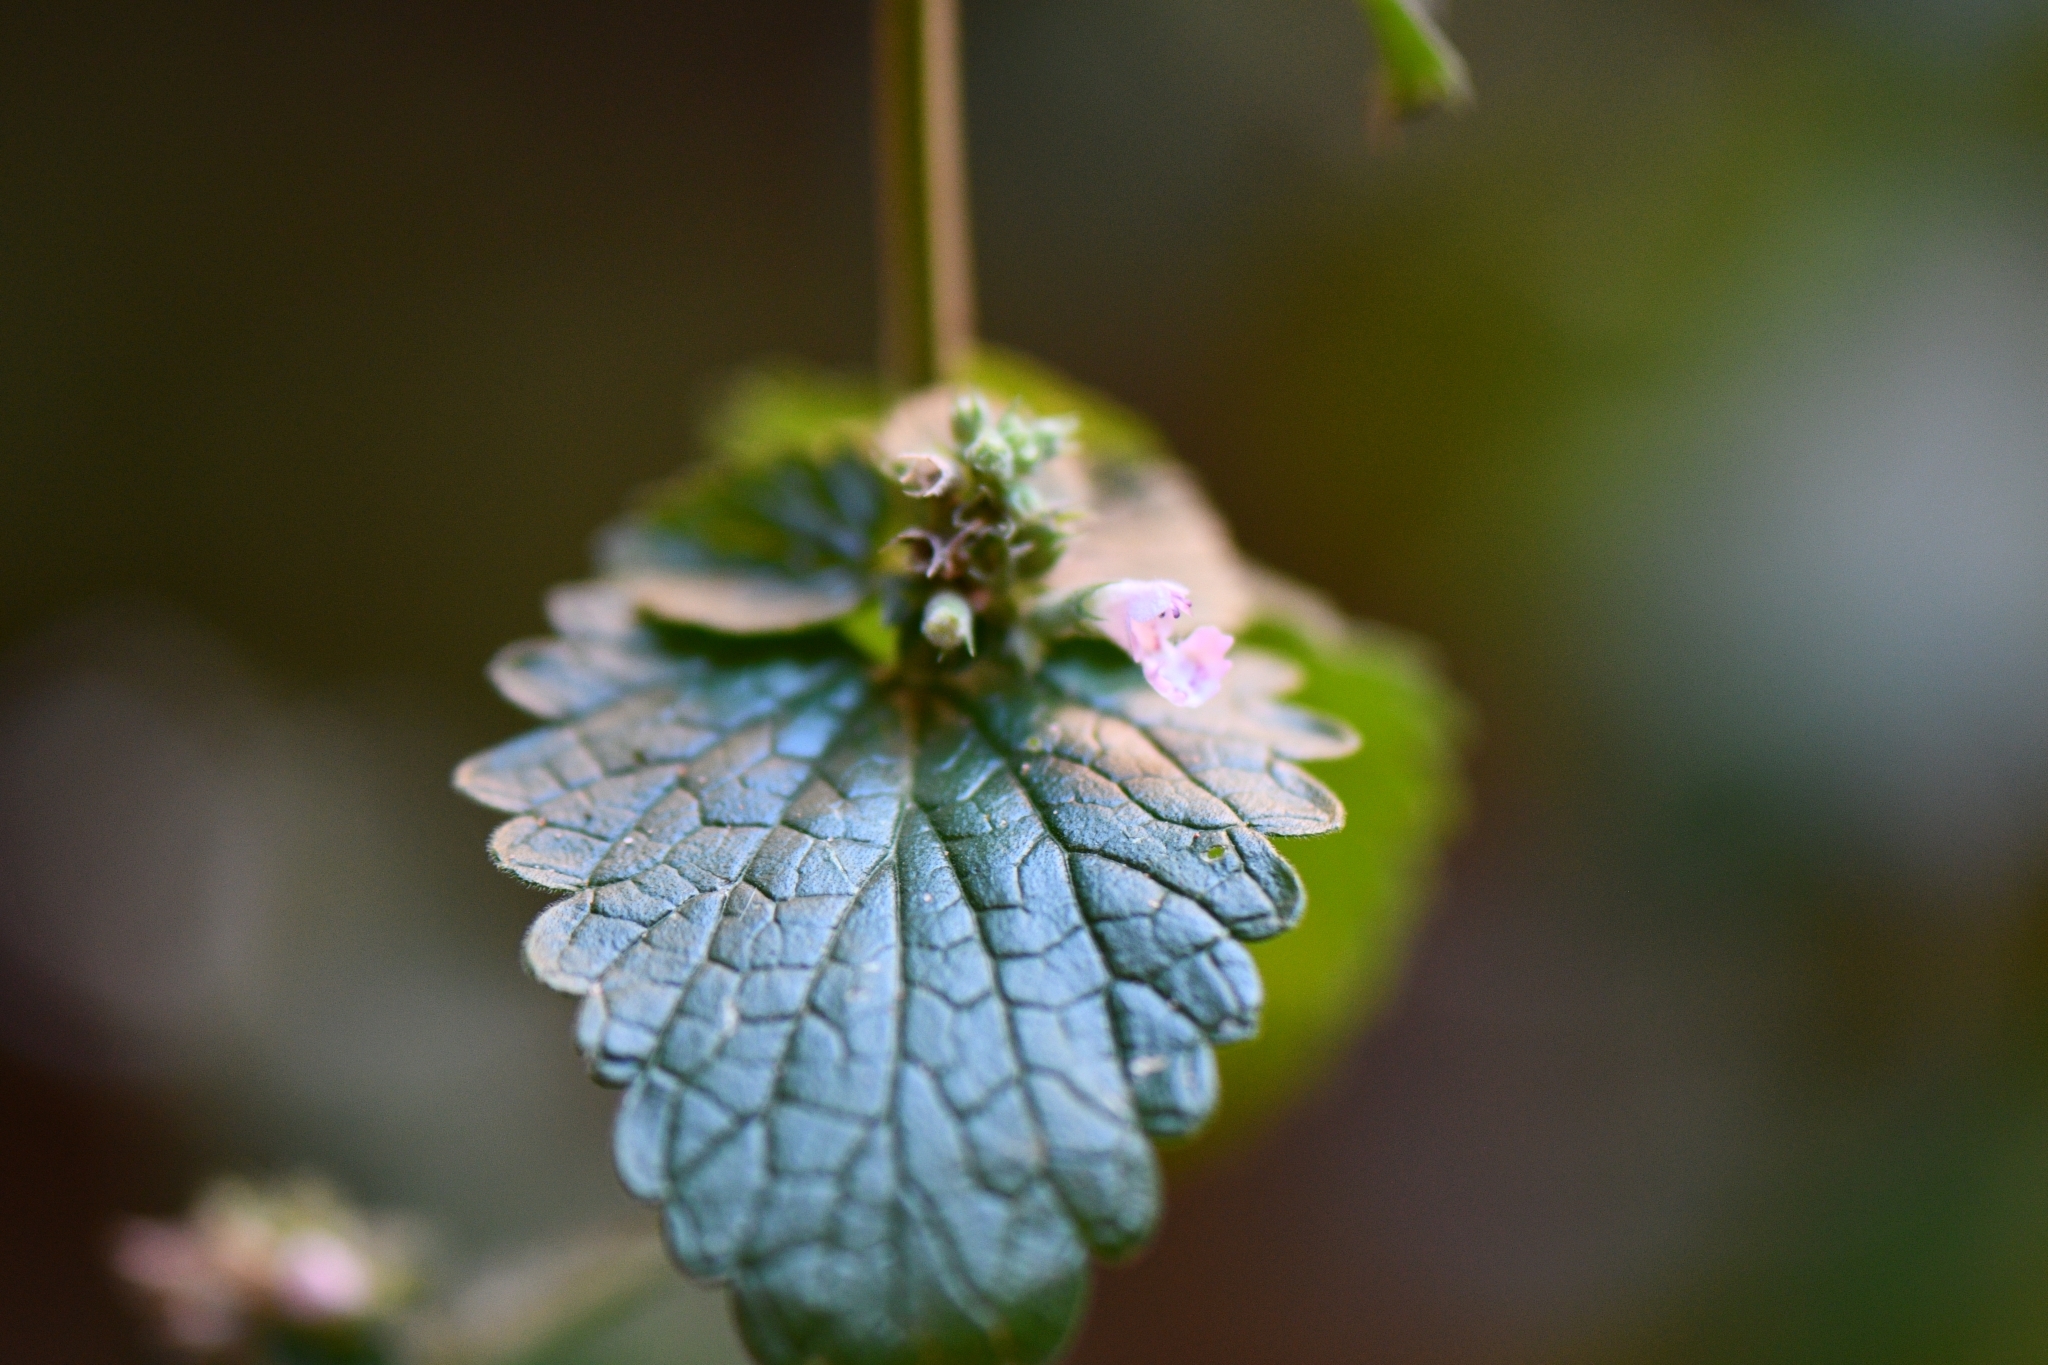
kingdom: Plantae
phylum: Tracheophyta
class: Magnoliopsida
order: Lamiales
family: Lamiaceae
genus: Nepeta
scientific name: Nepeta cataria
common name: Catnip
